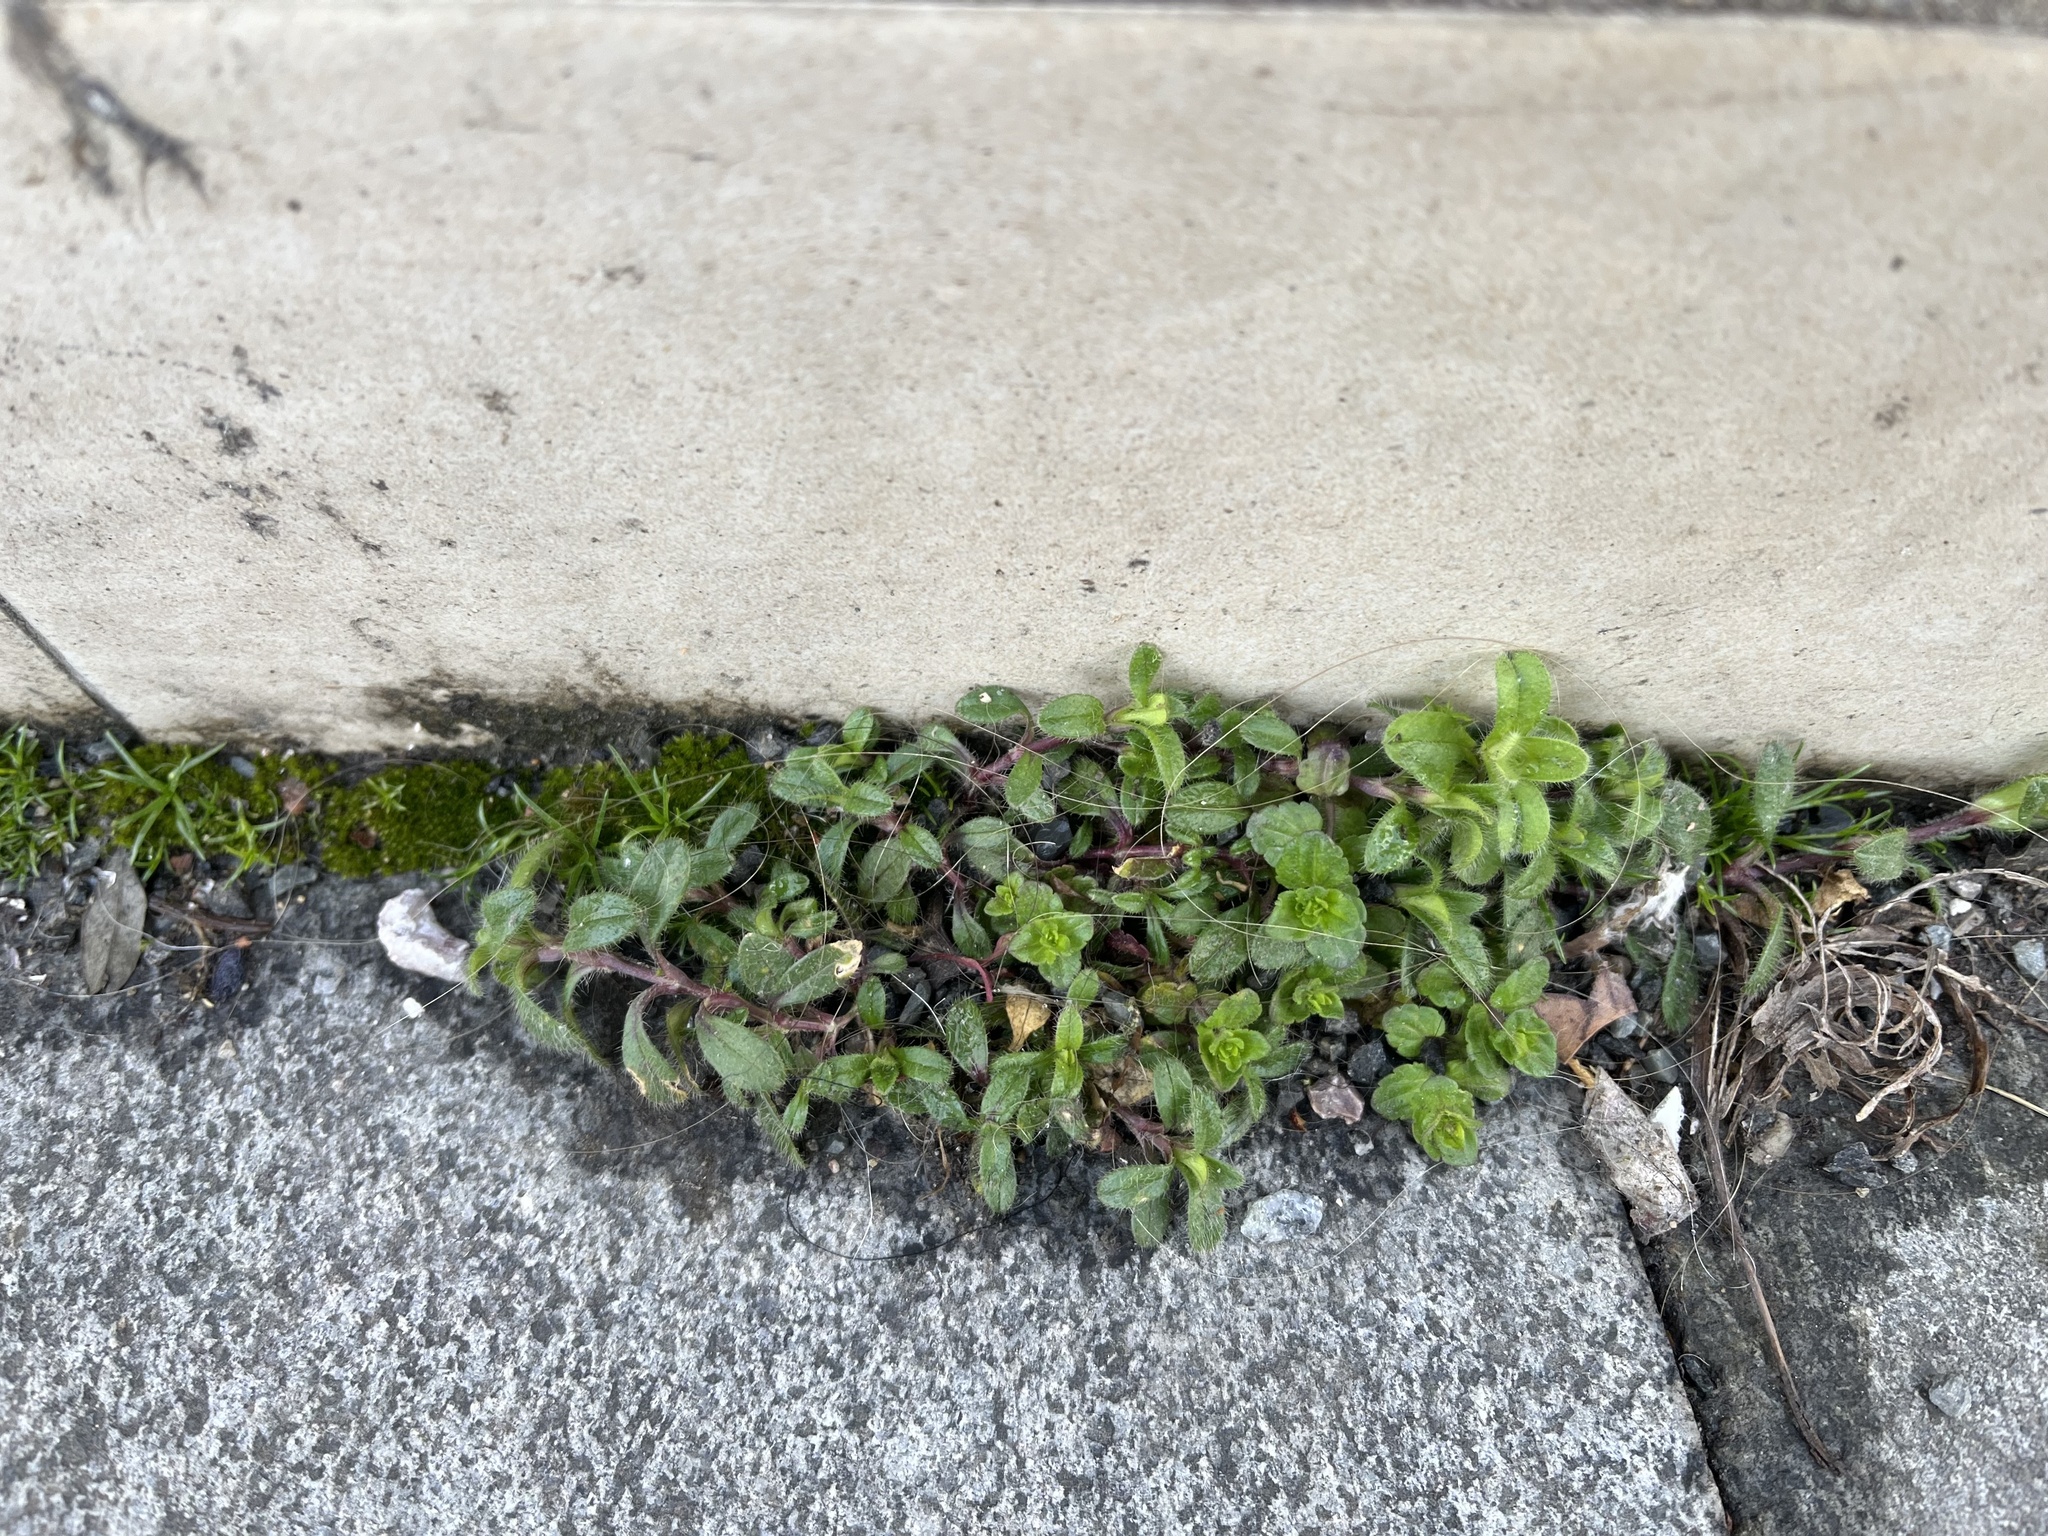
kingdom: Plantae
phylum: Tracheophyta
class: Magnoliopsida
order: Caryophyllales
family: Caryophyllaceae
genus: Cerastium
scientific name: Cerastium holosteoides
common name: Big chickweed
